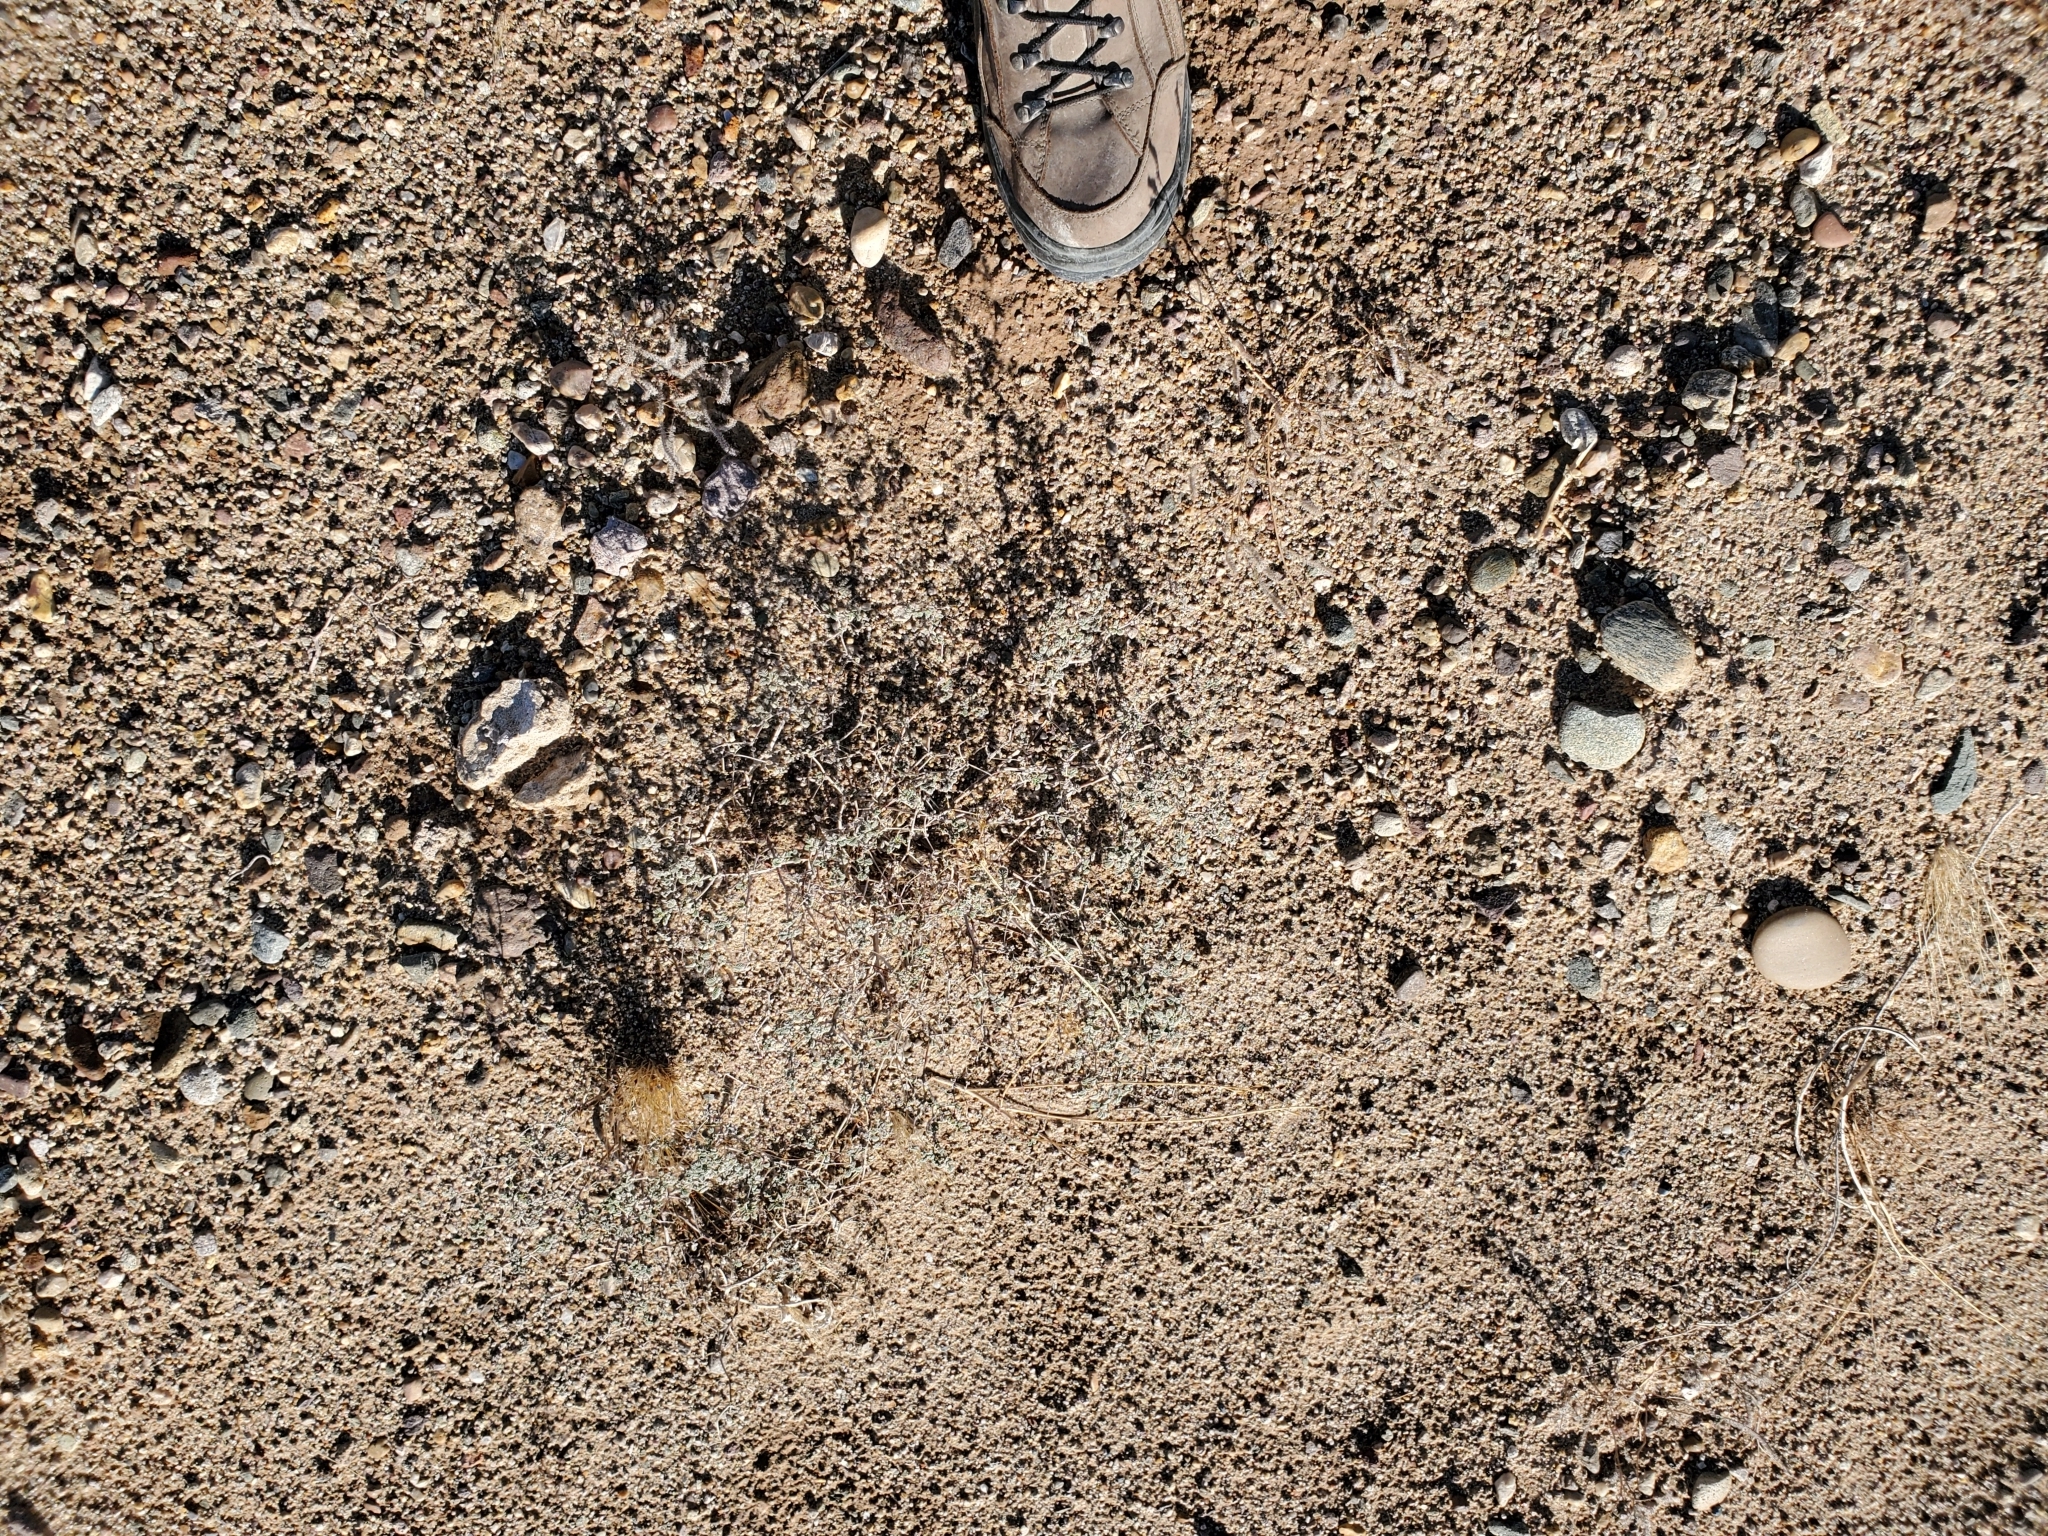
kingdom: Plantae
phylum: Tracheophyta
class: Magnoliopsida
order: Boraginales
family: Ehretiaceae
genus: Tiquilia
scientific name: Tiquilia plicata
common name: Fan-leaf tiquilia
